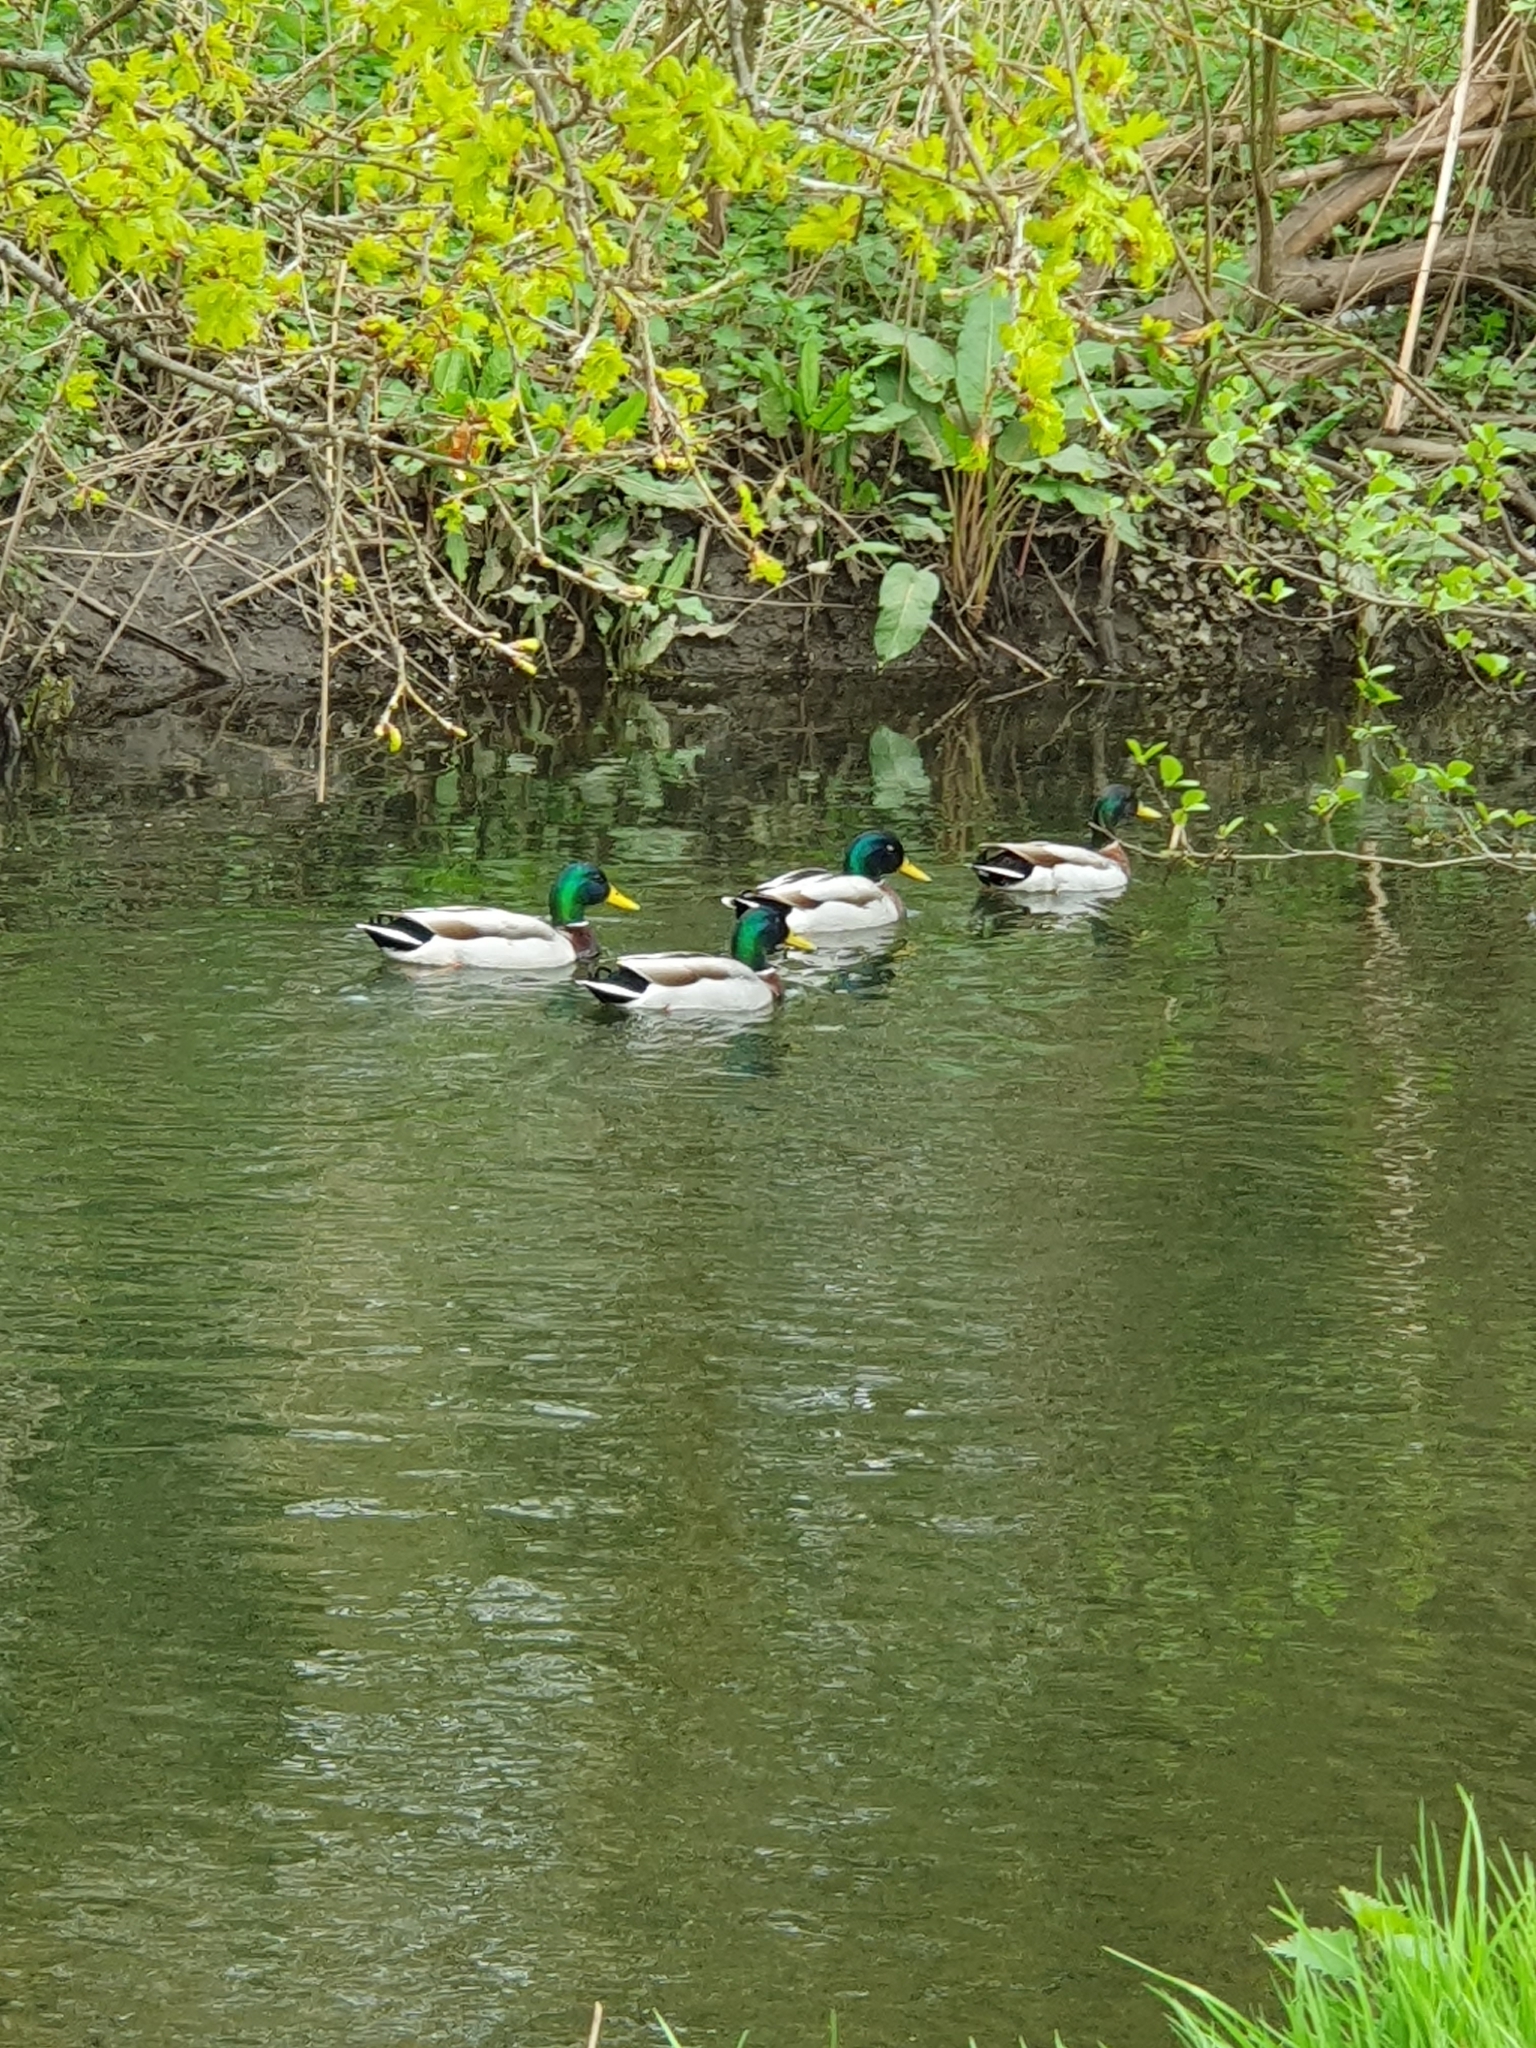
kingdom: Animalia
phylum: Chordata
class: Aves
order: Anseriformes
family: Anatidae
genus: Anas
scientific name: Anas platyrhynchos
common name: Mallard
